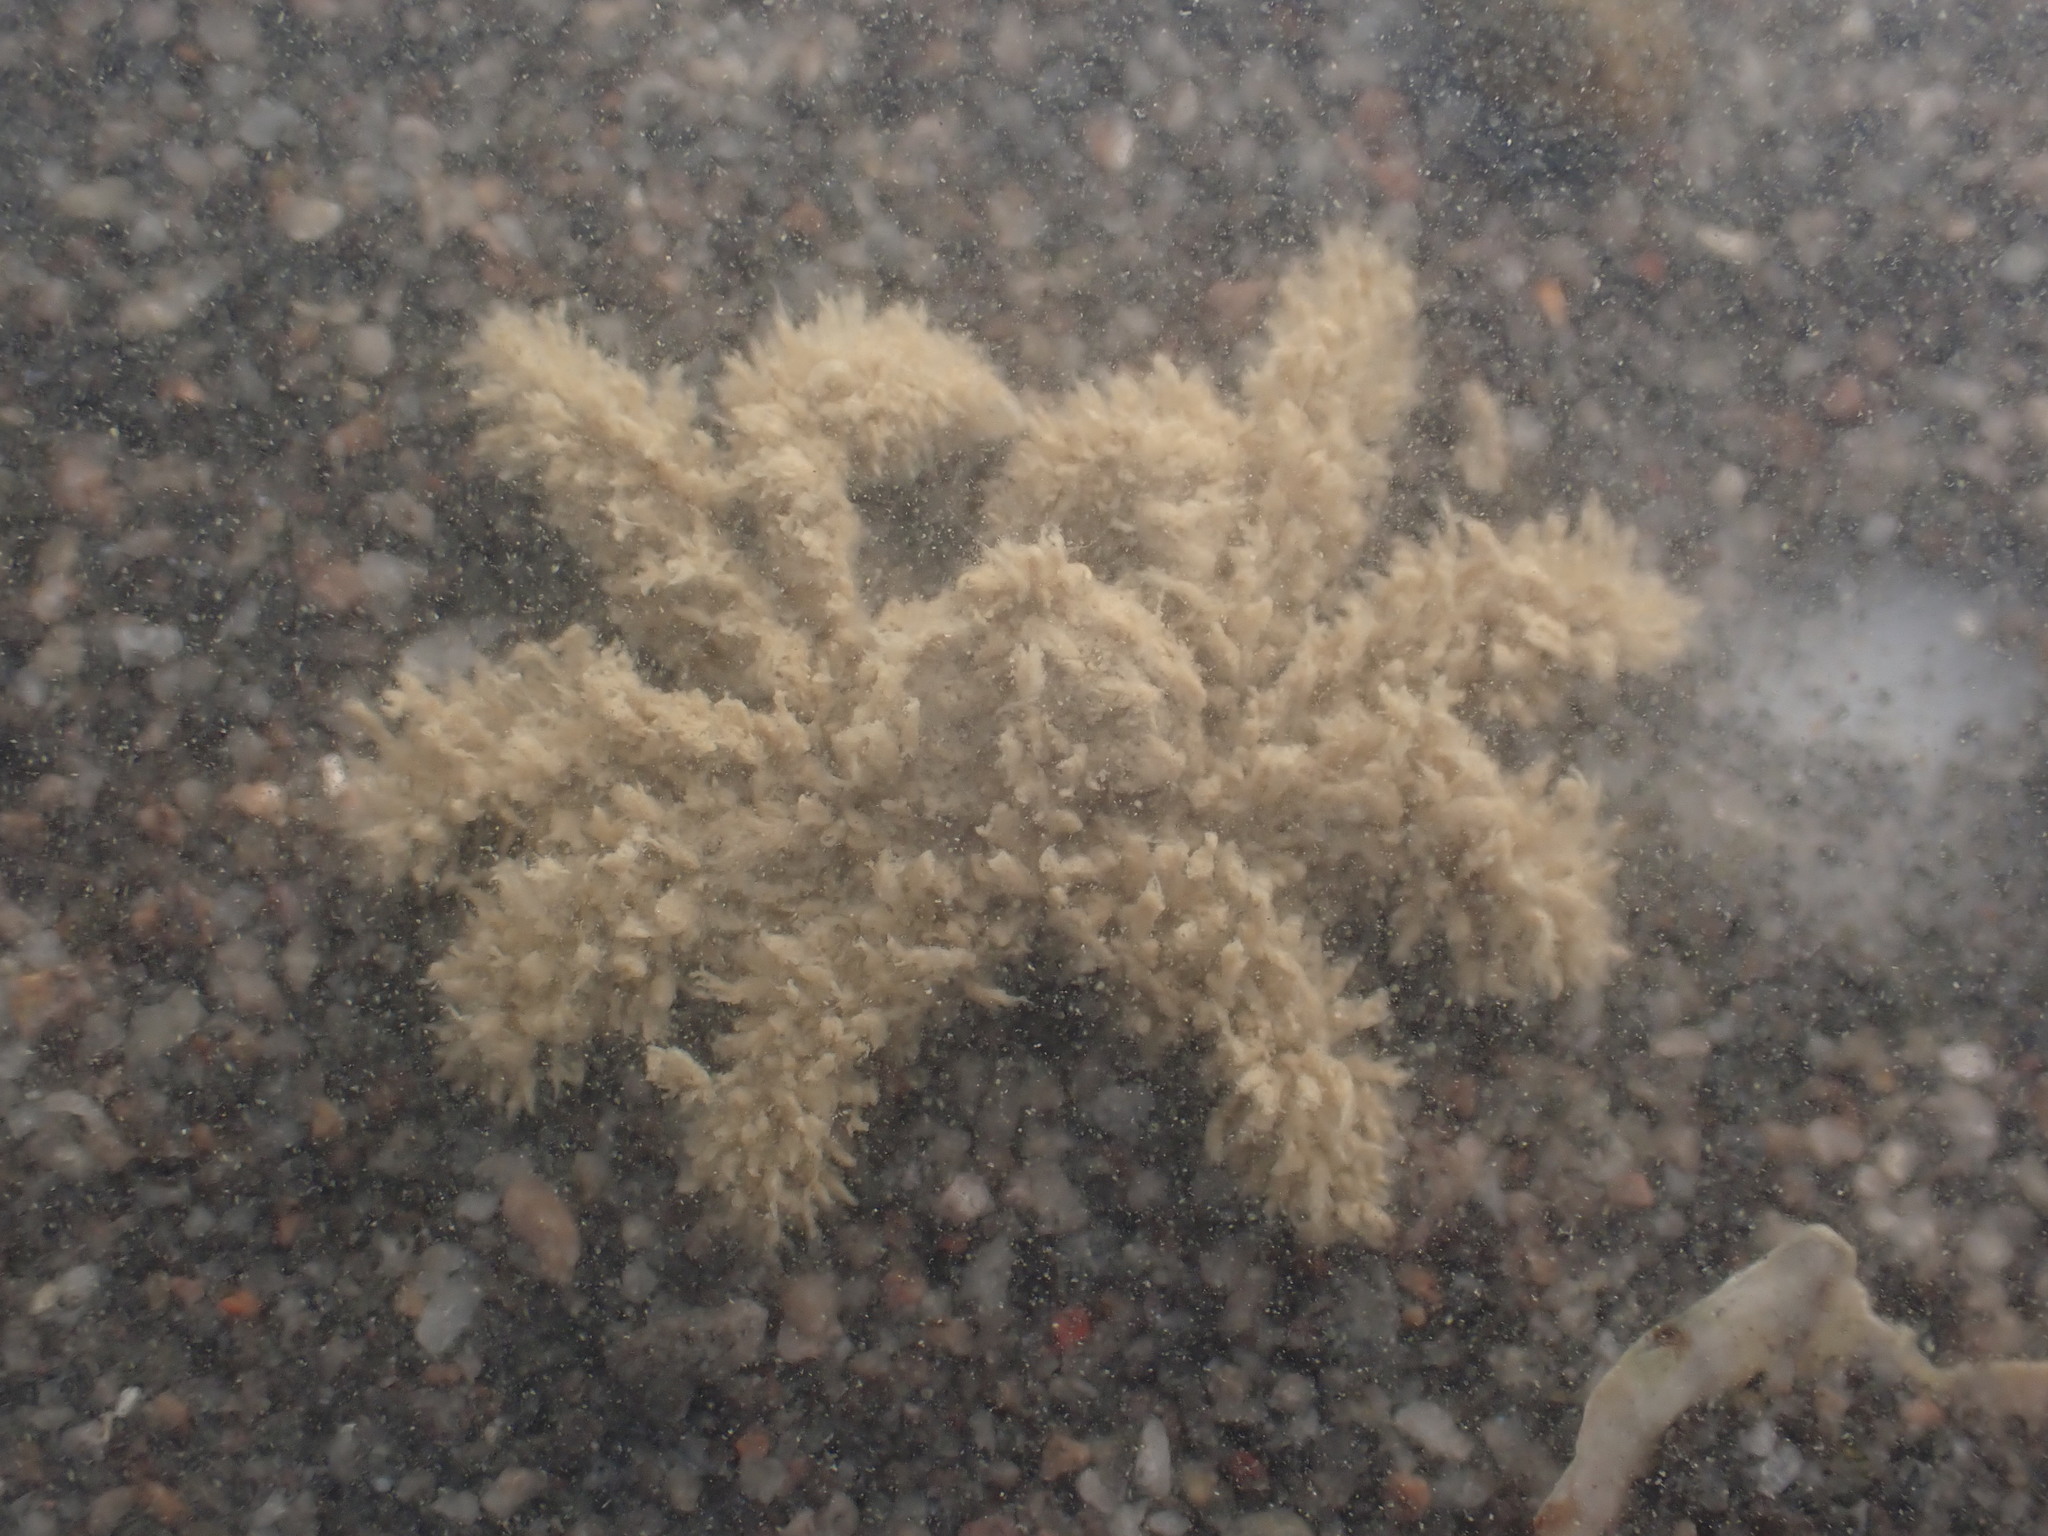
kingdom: Animalia
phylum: Arthropoda
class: Malacostraca
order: Decapoda
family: Hymenosomatidae
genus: Neohymenicus
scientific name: Neohymenicus pubescens
